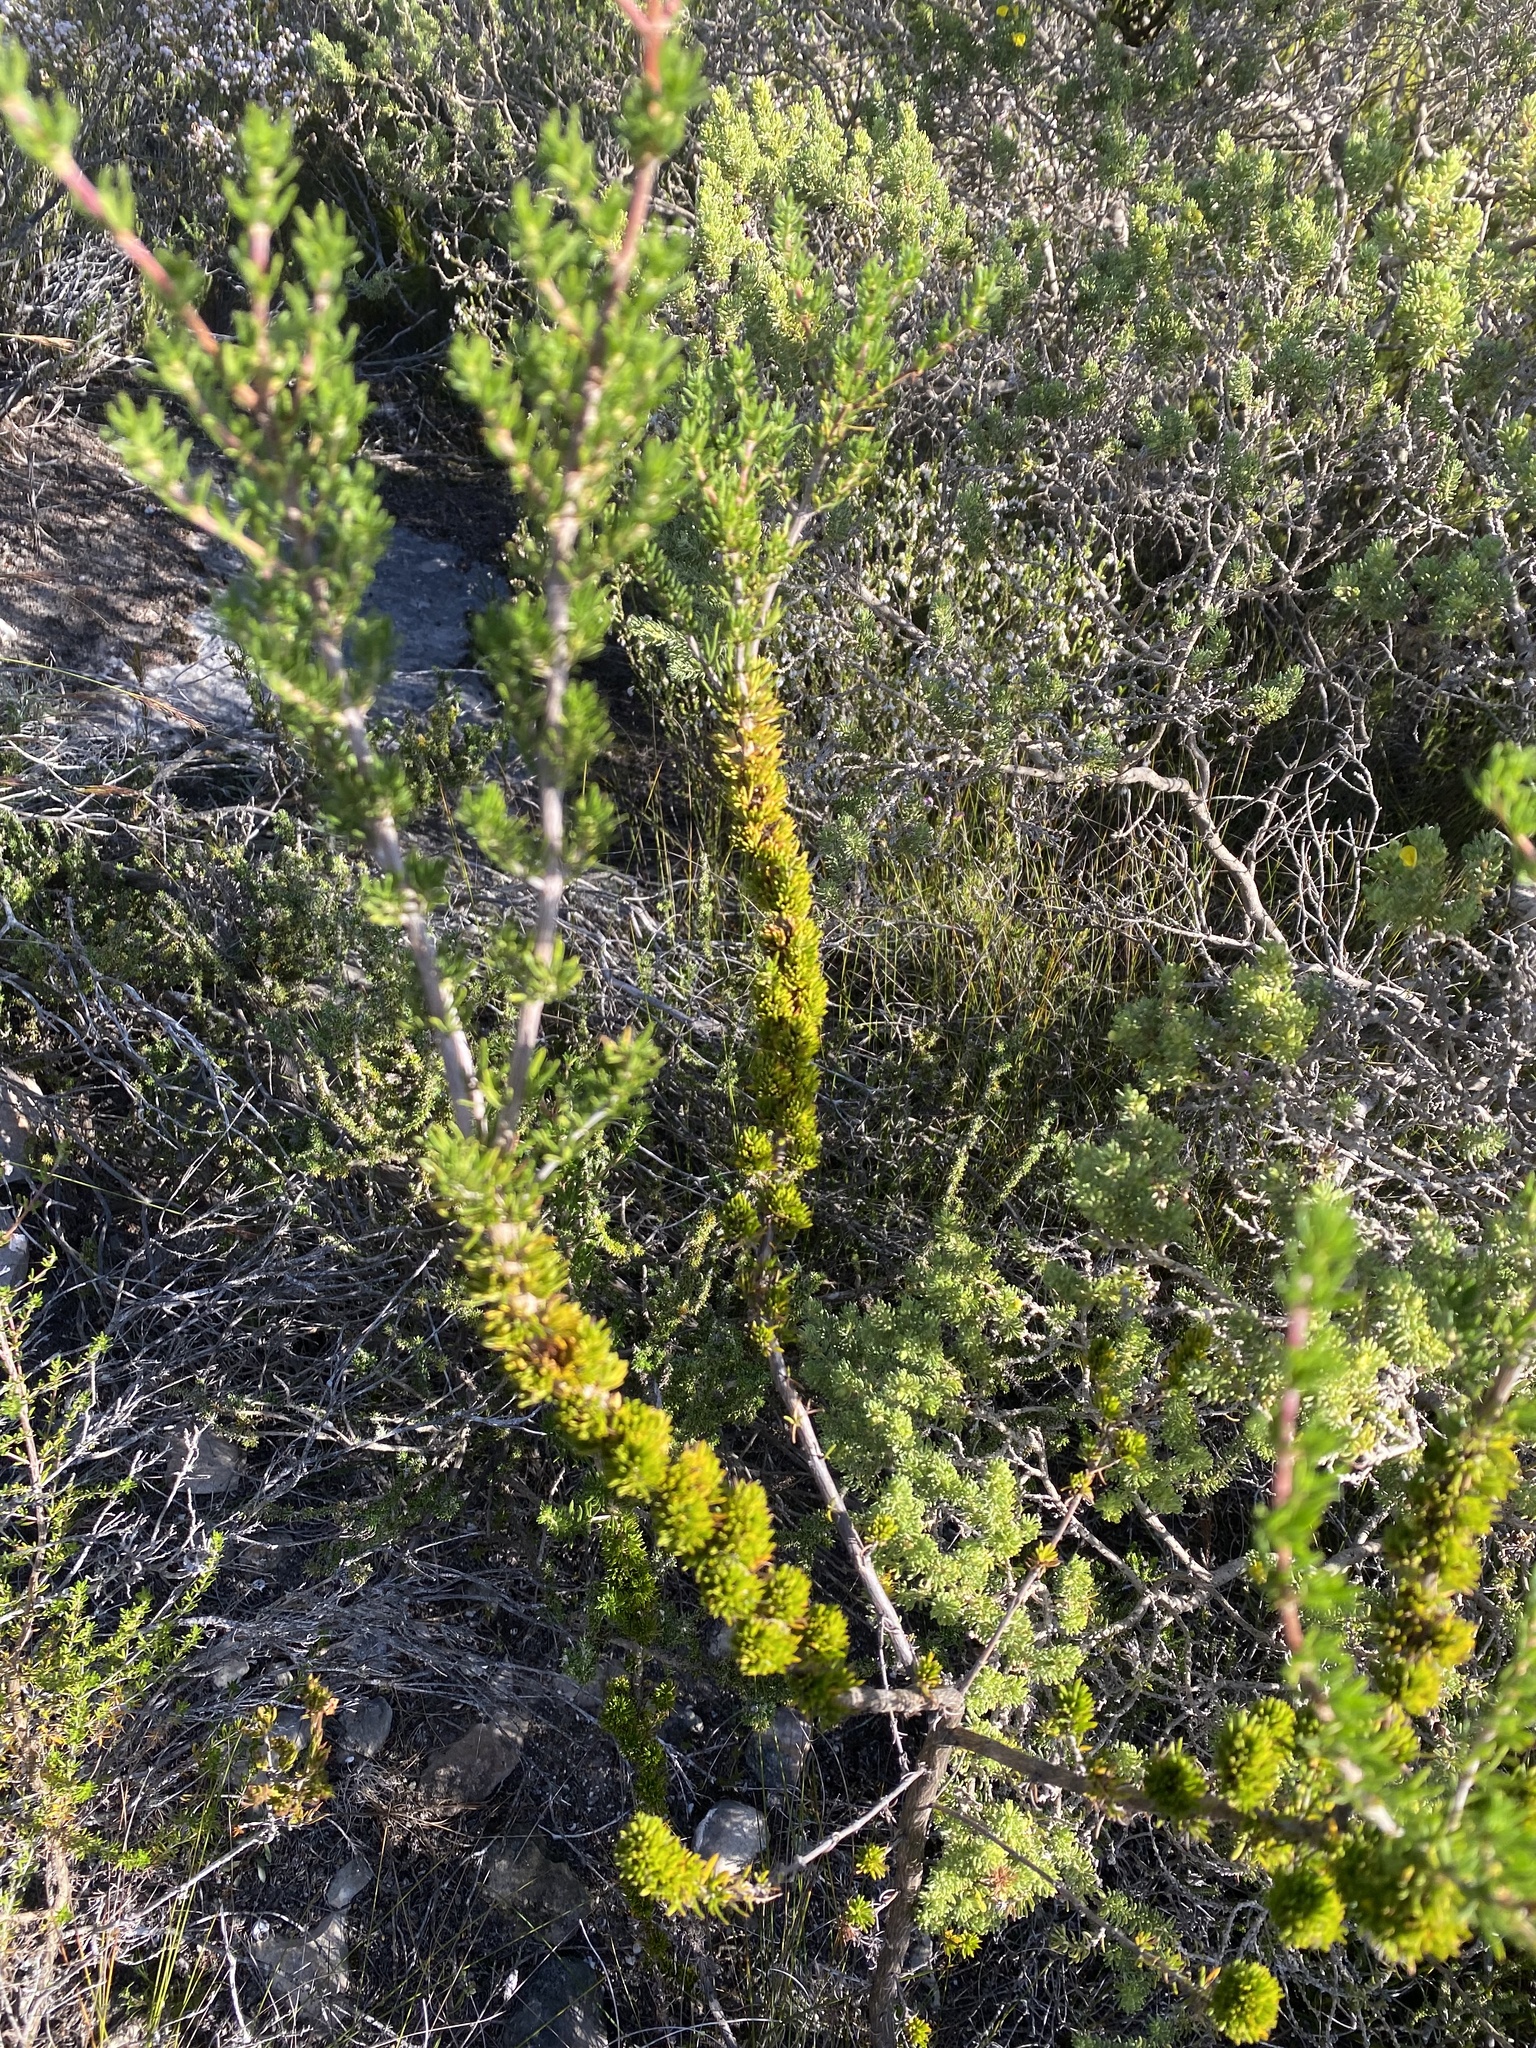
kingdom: Plantae
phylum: Tracheophyta
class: Magnoliopsida
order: Gentianales
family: Rubiaceae
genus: Anthospermum
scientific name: Anthospermum spathulatum
